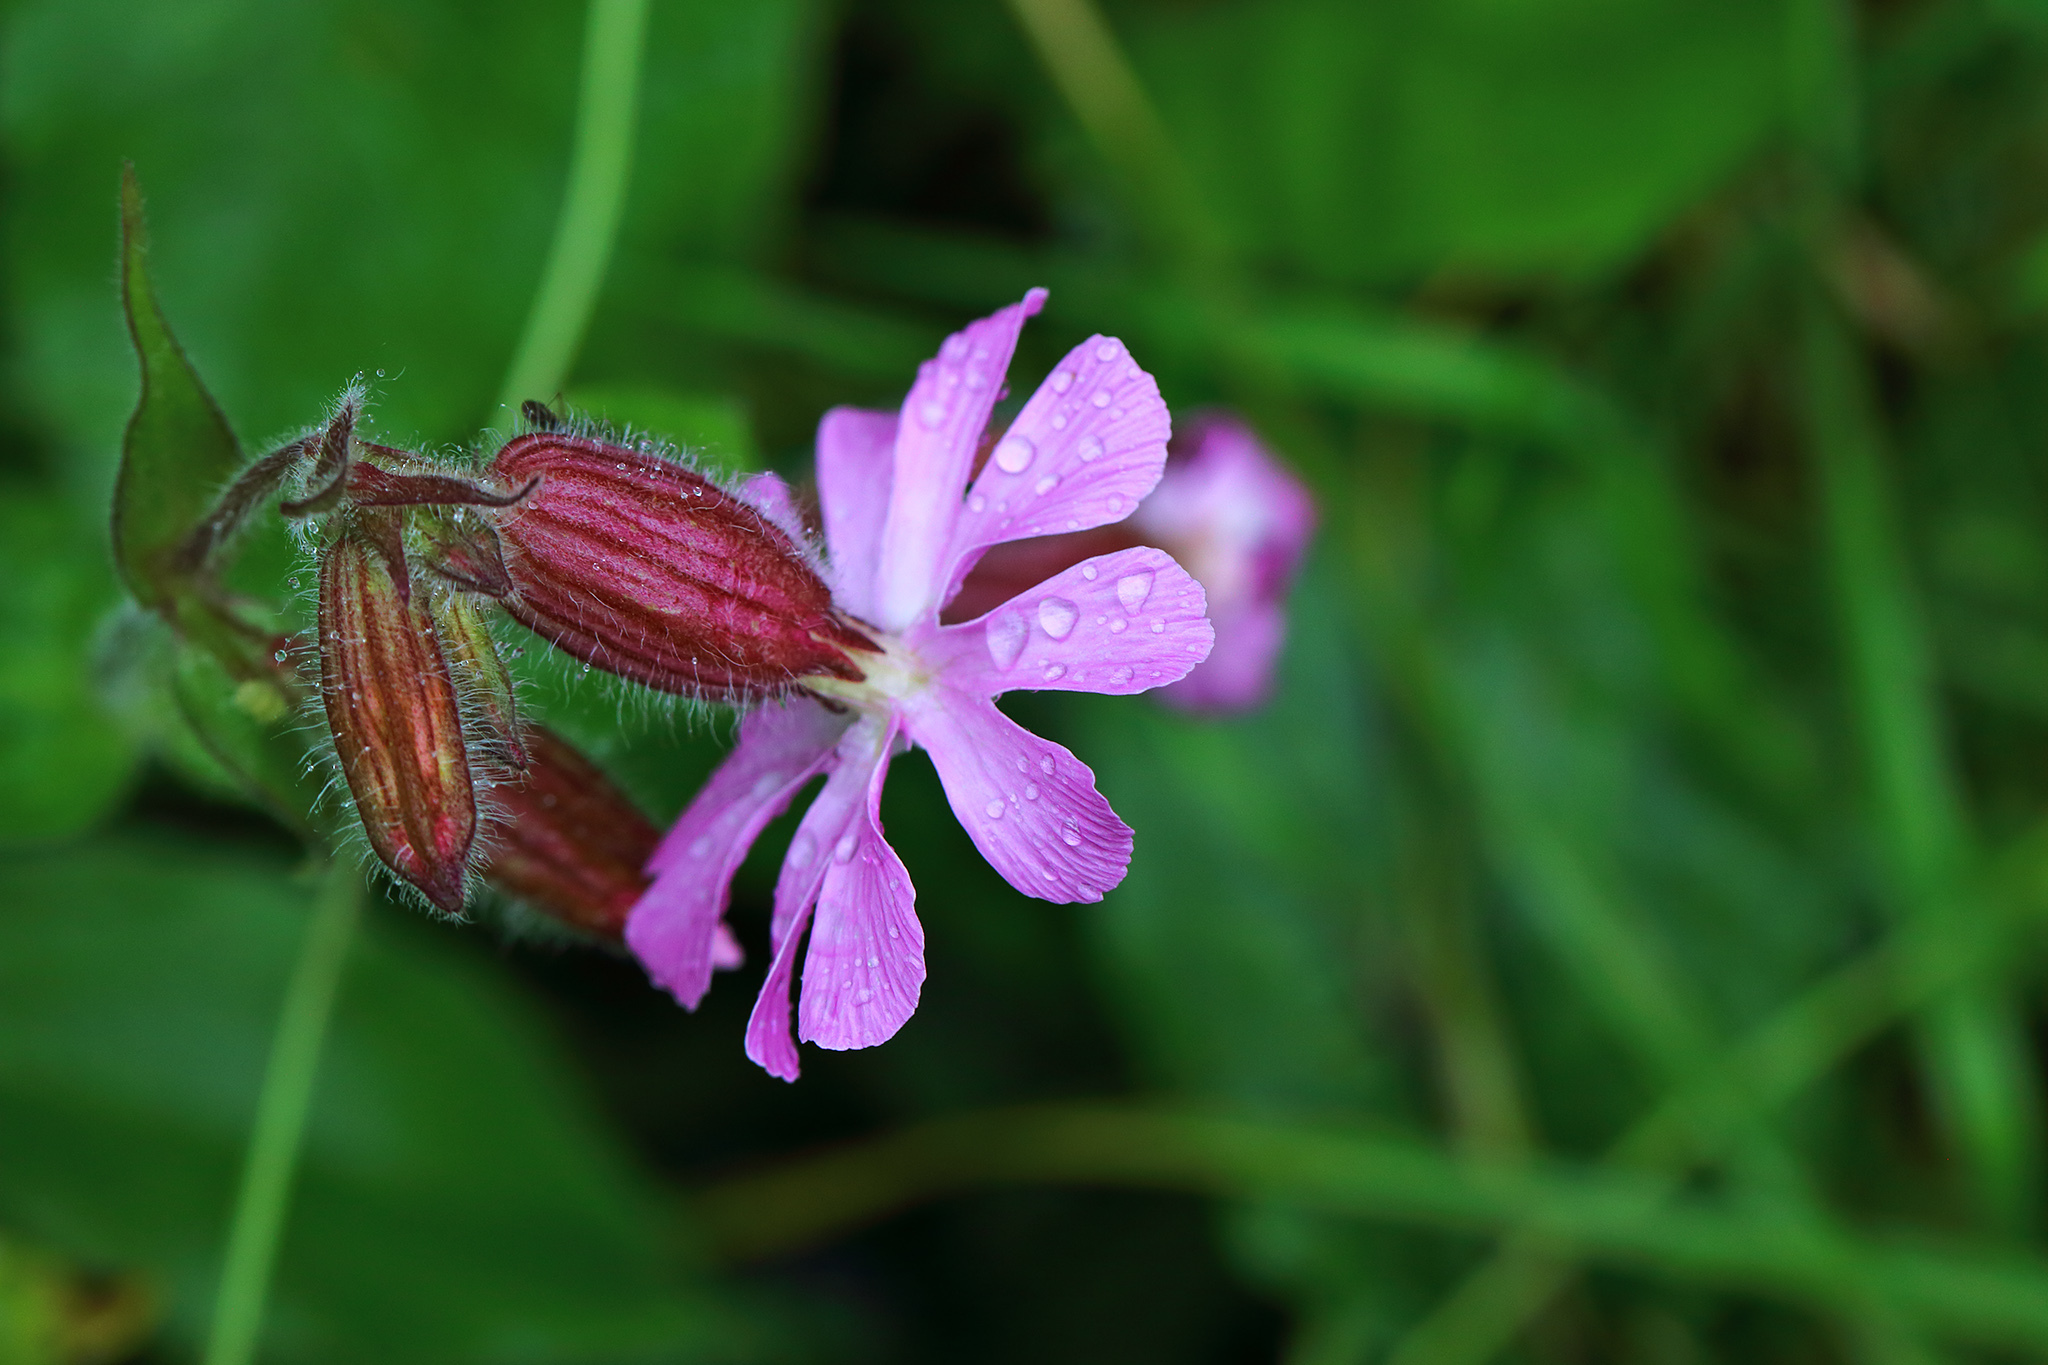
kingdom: Plantae
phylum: Tracheophyta
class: Magnoliopsida
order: Caryophyllales
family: Caryophyllaceae
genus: Silene
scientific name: Silene dioica
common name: Red campion
